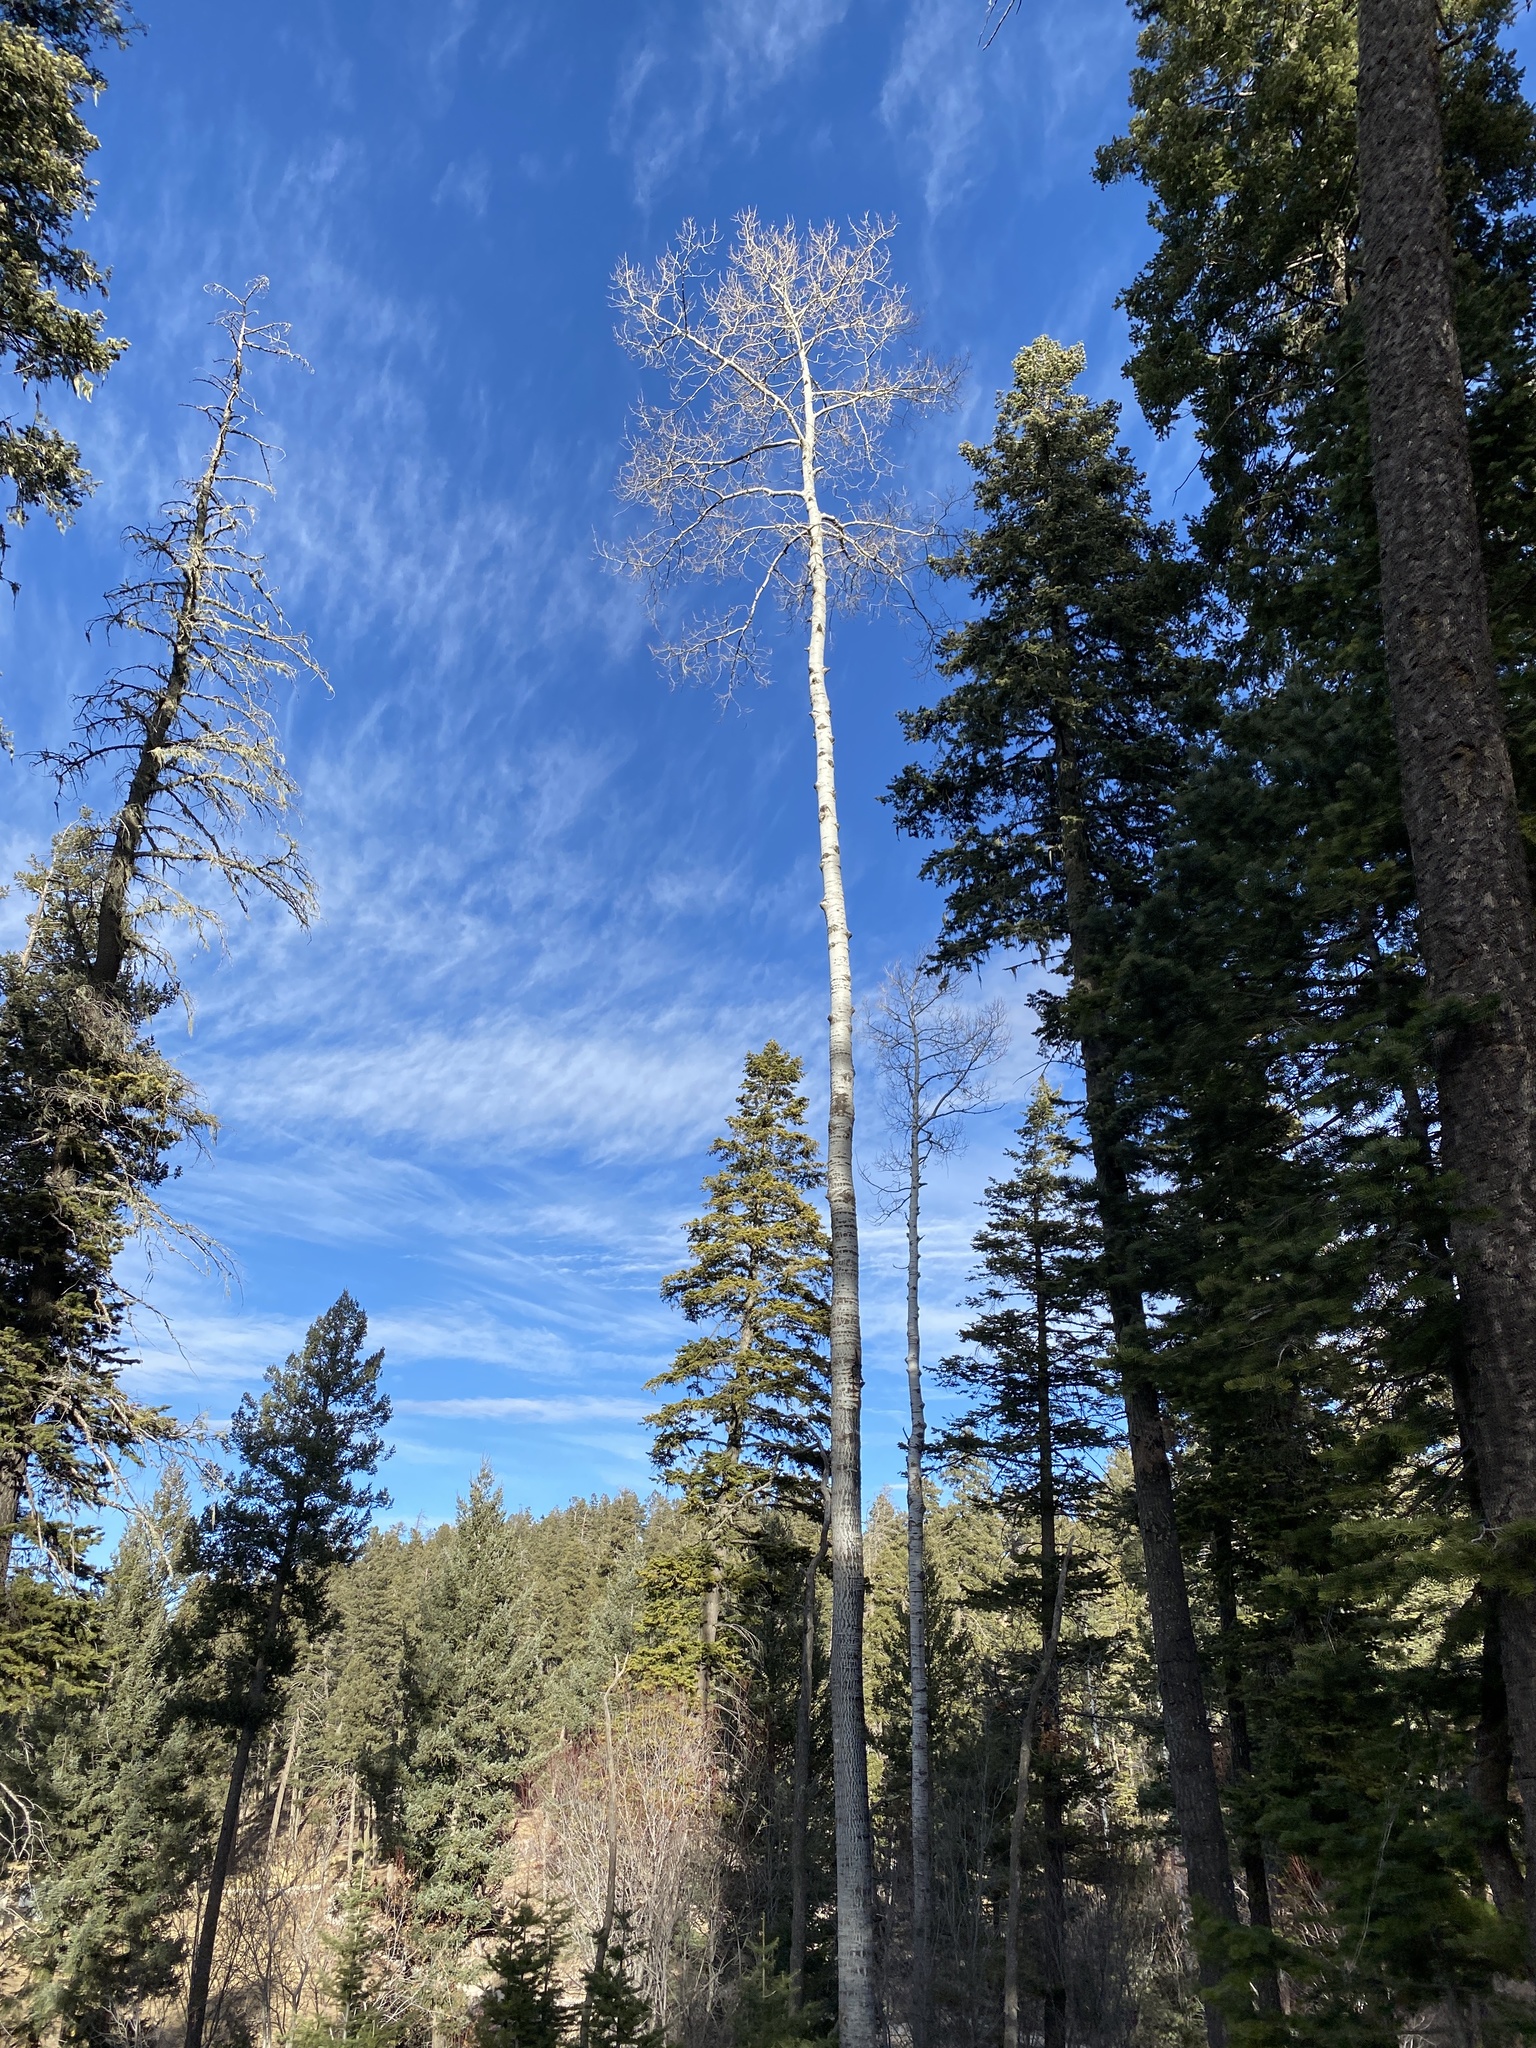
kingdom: Plantae
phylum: Tracheophyta
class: Magnoliopsida
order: Malpighiales
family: Salicaceae
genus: Populus
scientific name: Populus tremuloides
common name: Quaking aspen
